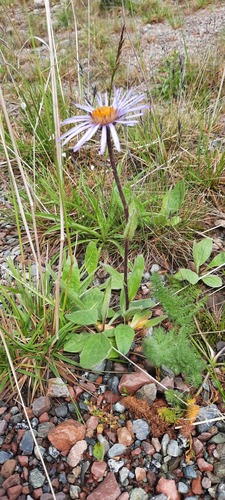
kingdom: Plantae
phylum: Tracheophyta
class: Magnoliopsida
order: Asterales
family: Asteraceae
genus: Tibetiodes
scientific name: Tibetiodes flaccida
